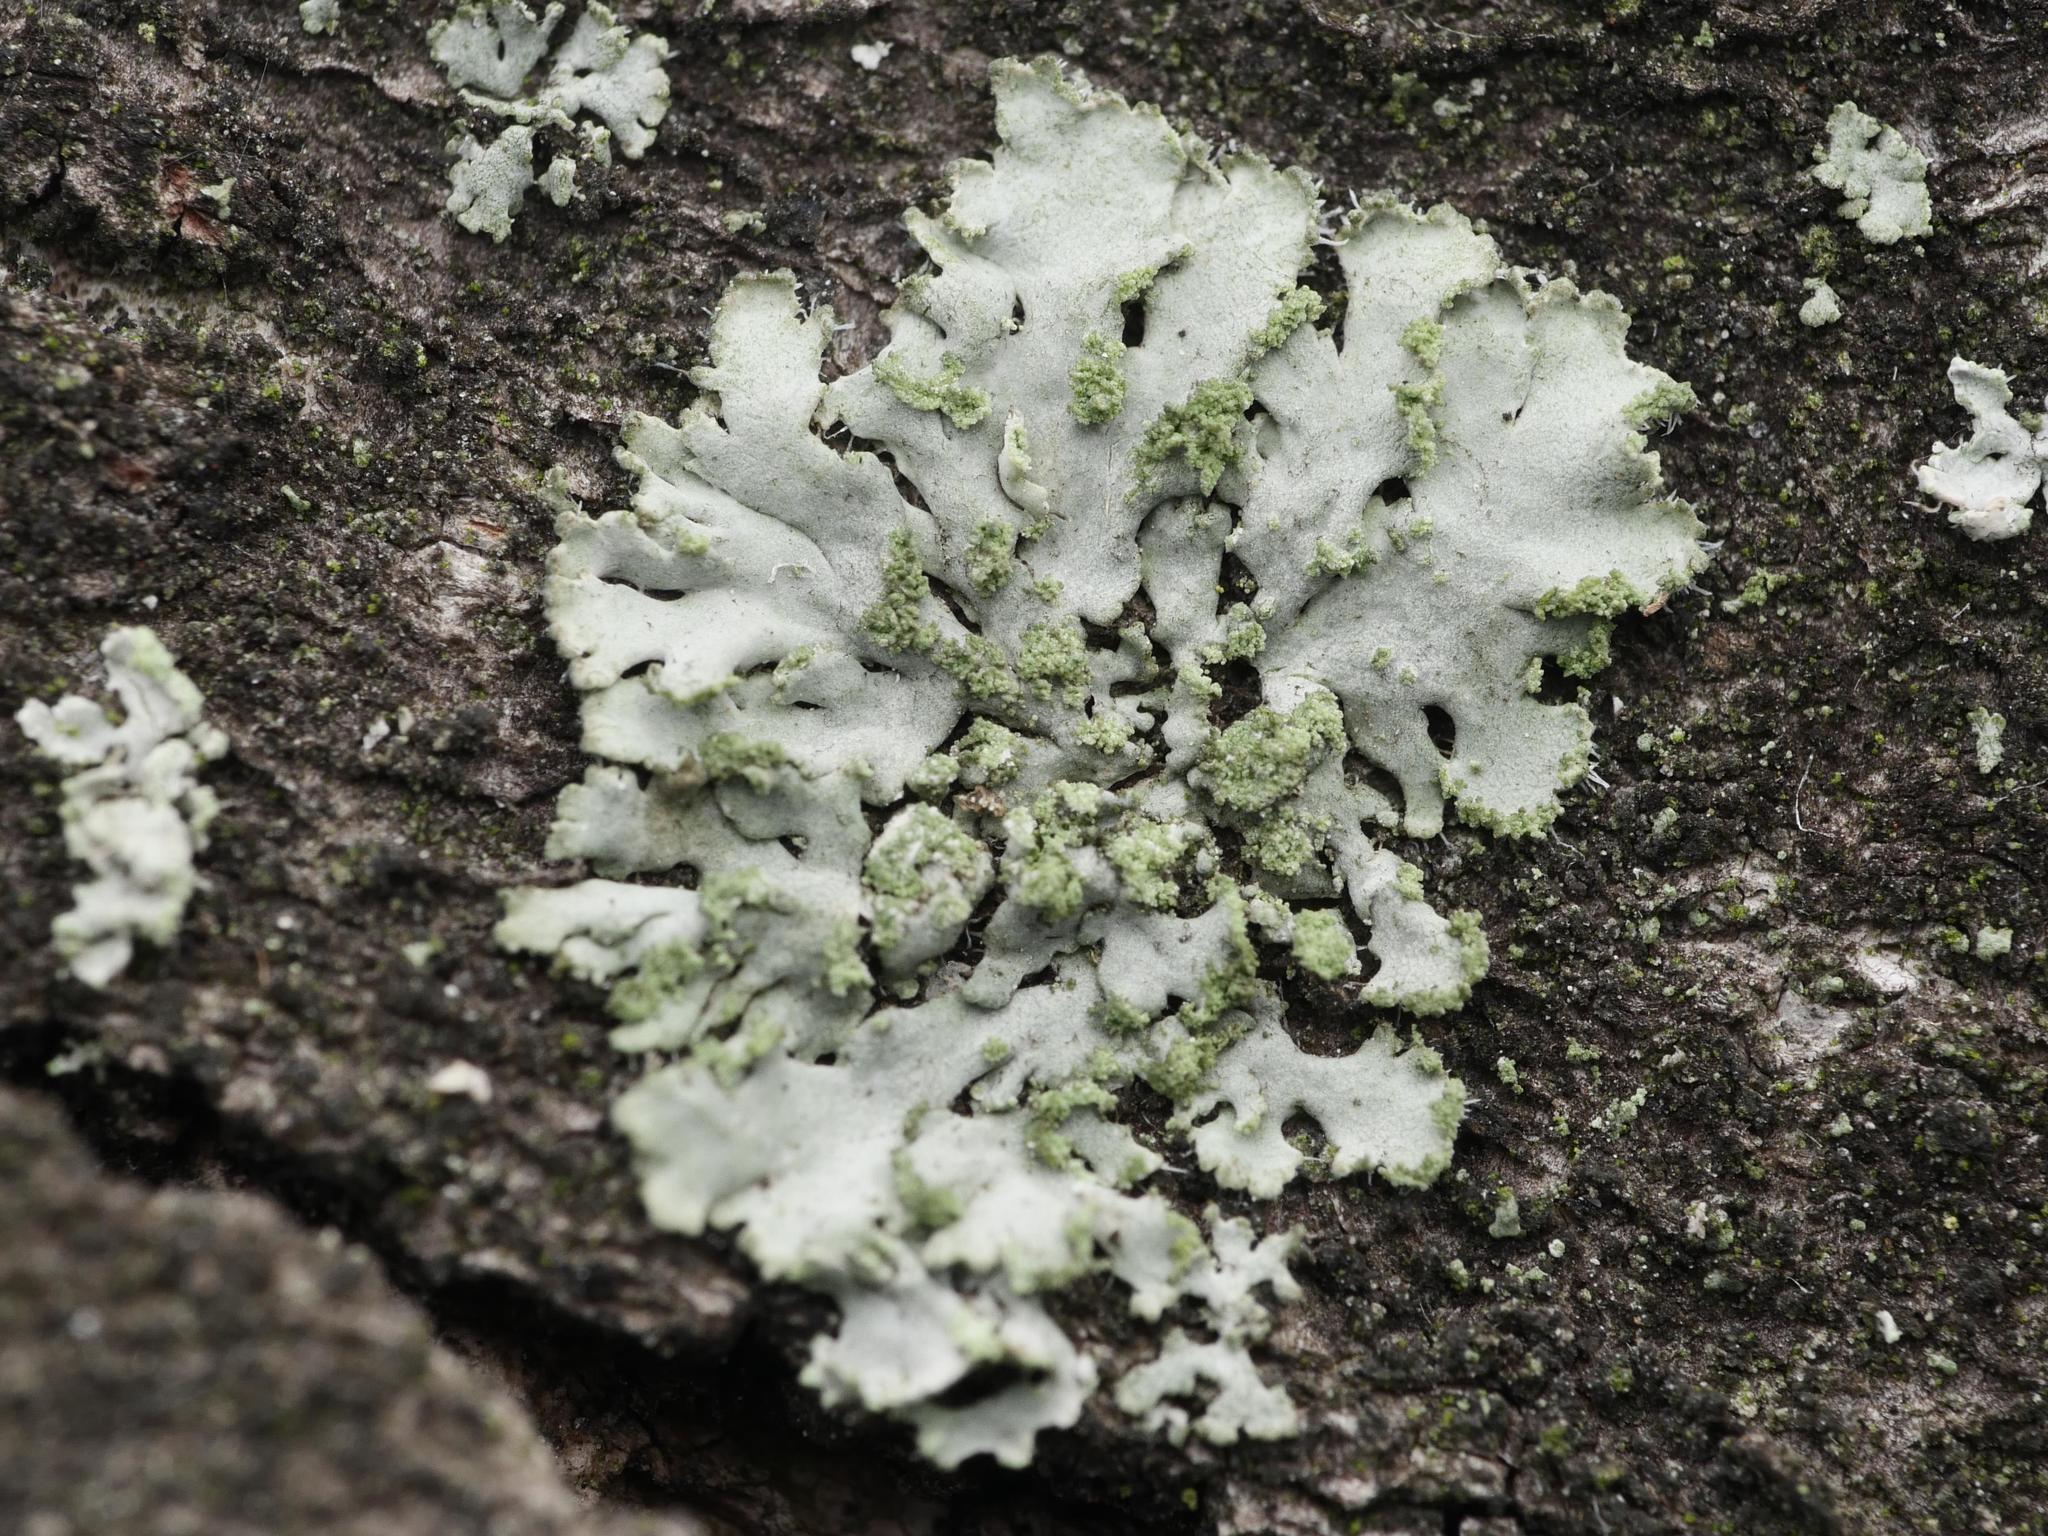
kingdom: Fungi
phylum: Ascomycota
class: Lecanoromycetes
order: Caliciales
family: Physciaceae
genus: Phaeophyscia
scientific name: Phaeophyscia orbicularis
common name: Mealy shadow lichen
